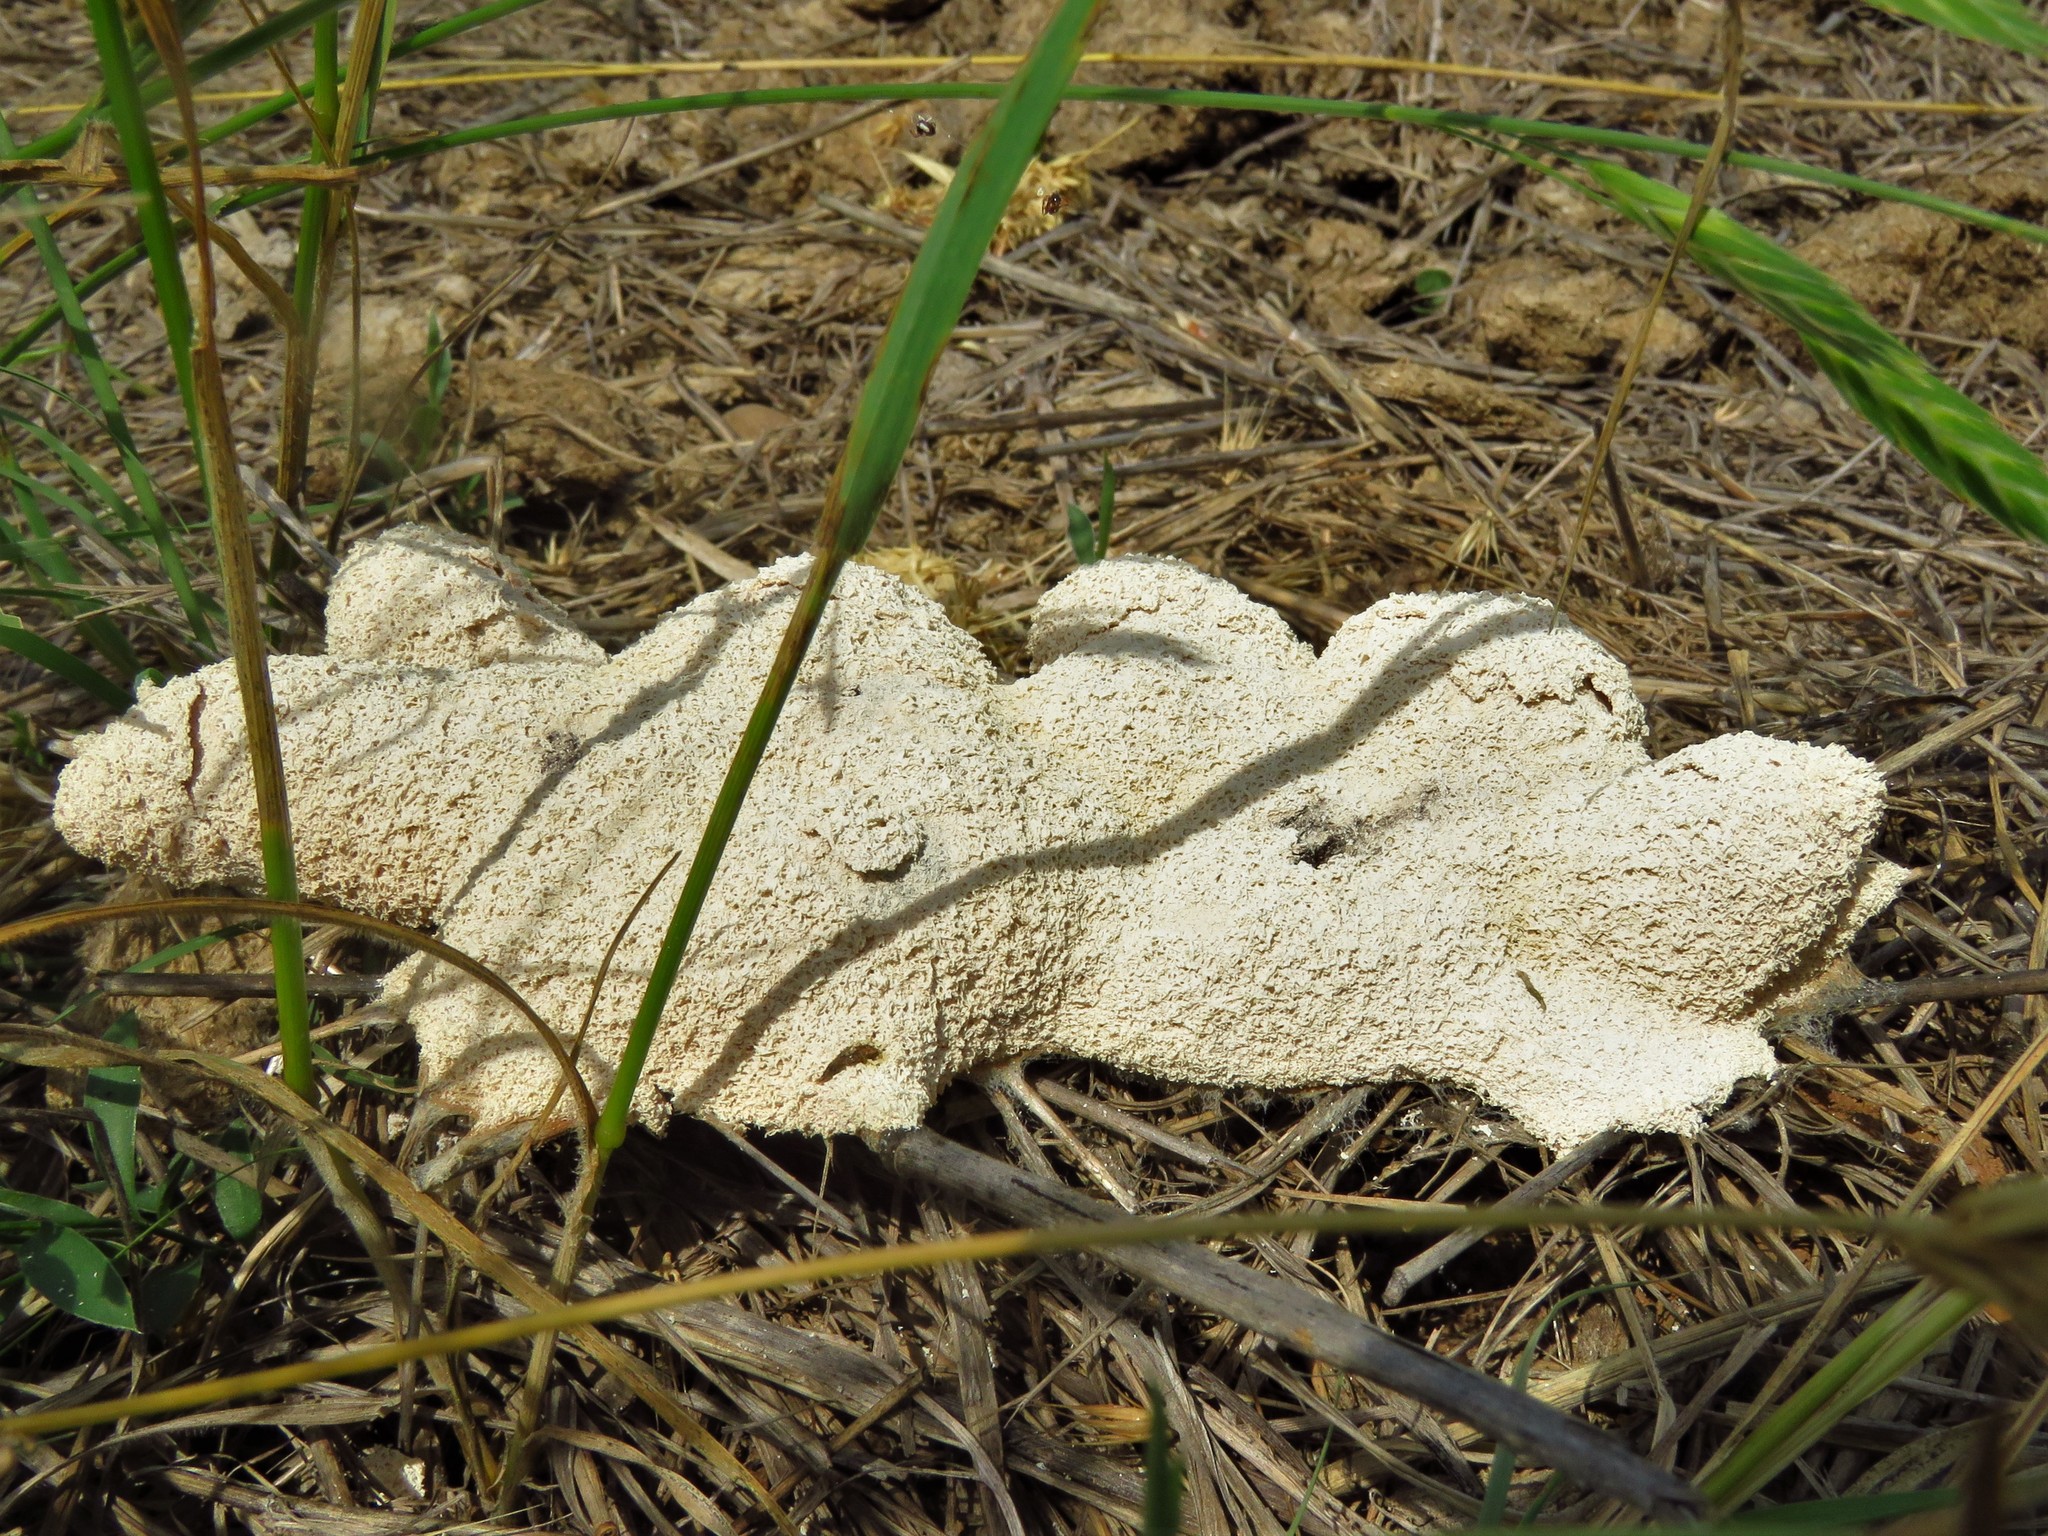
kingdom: Protozoa
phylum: Mycetozoa
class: Myxomycetes
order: Physarales
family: Physaraceae
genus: Fuligo
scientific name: Fuligo septica
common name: Dog vomit slime mold
